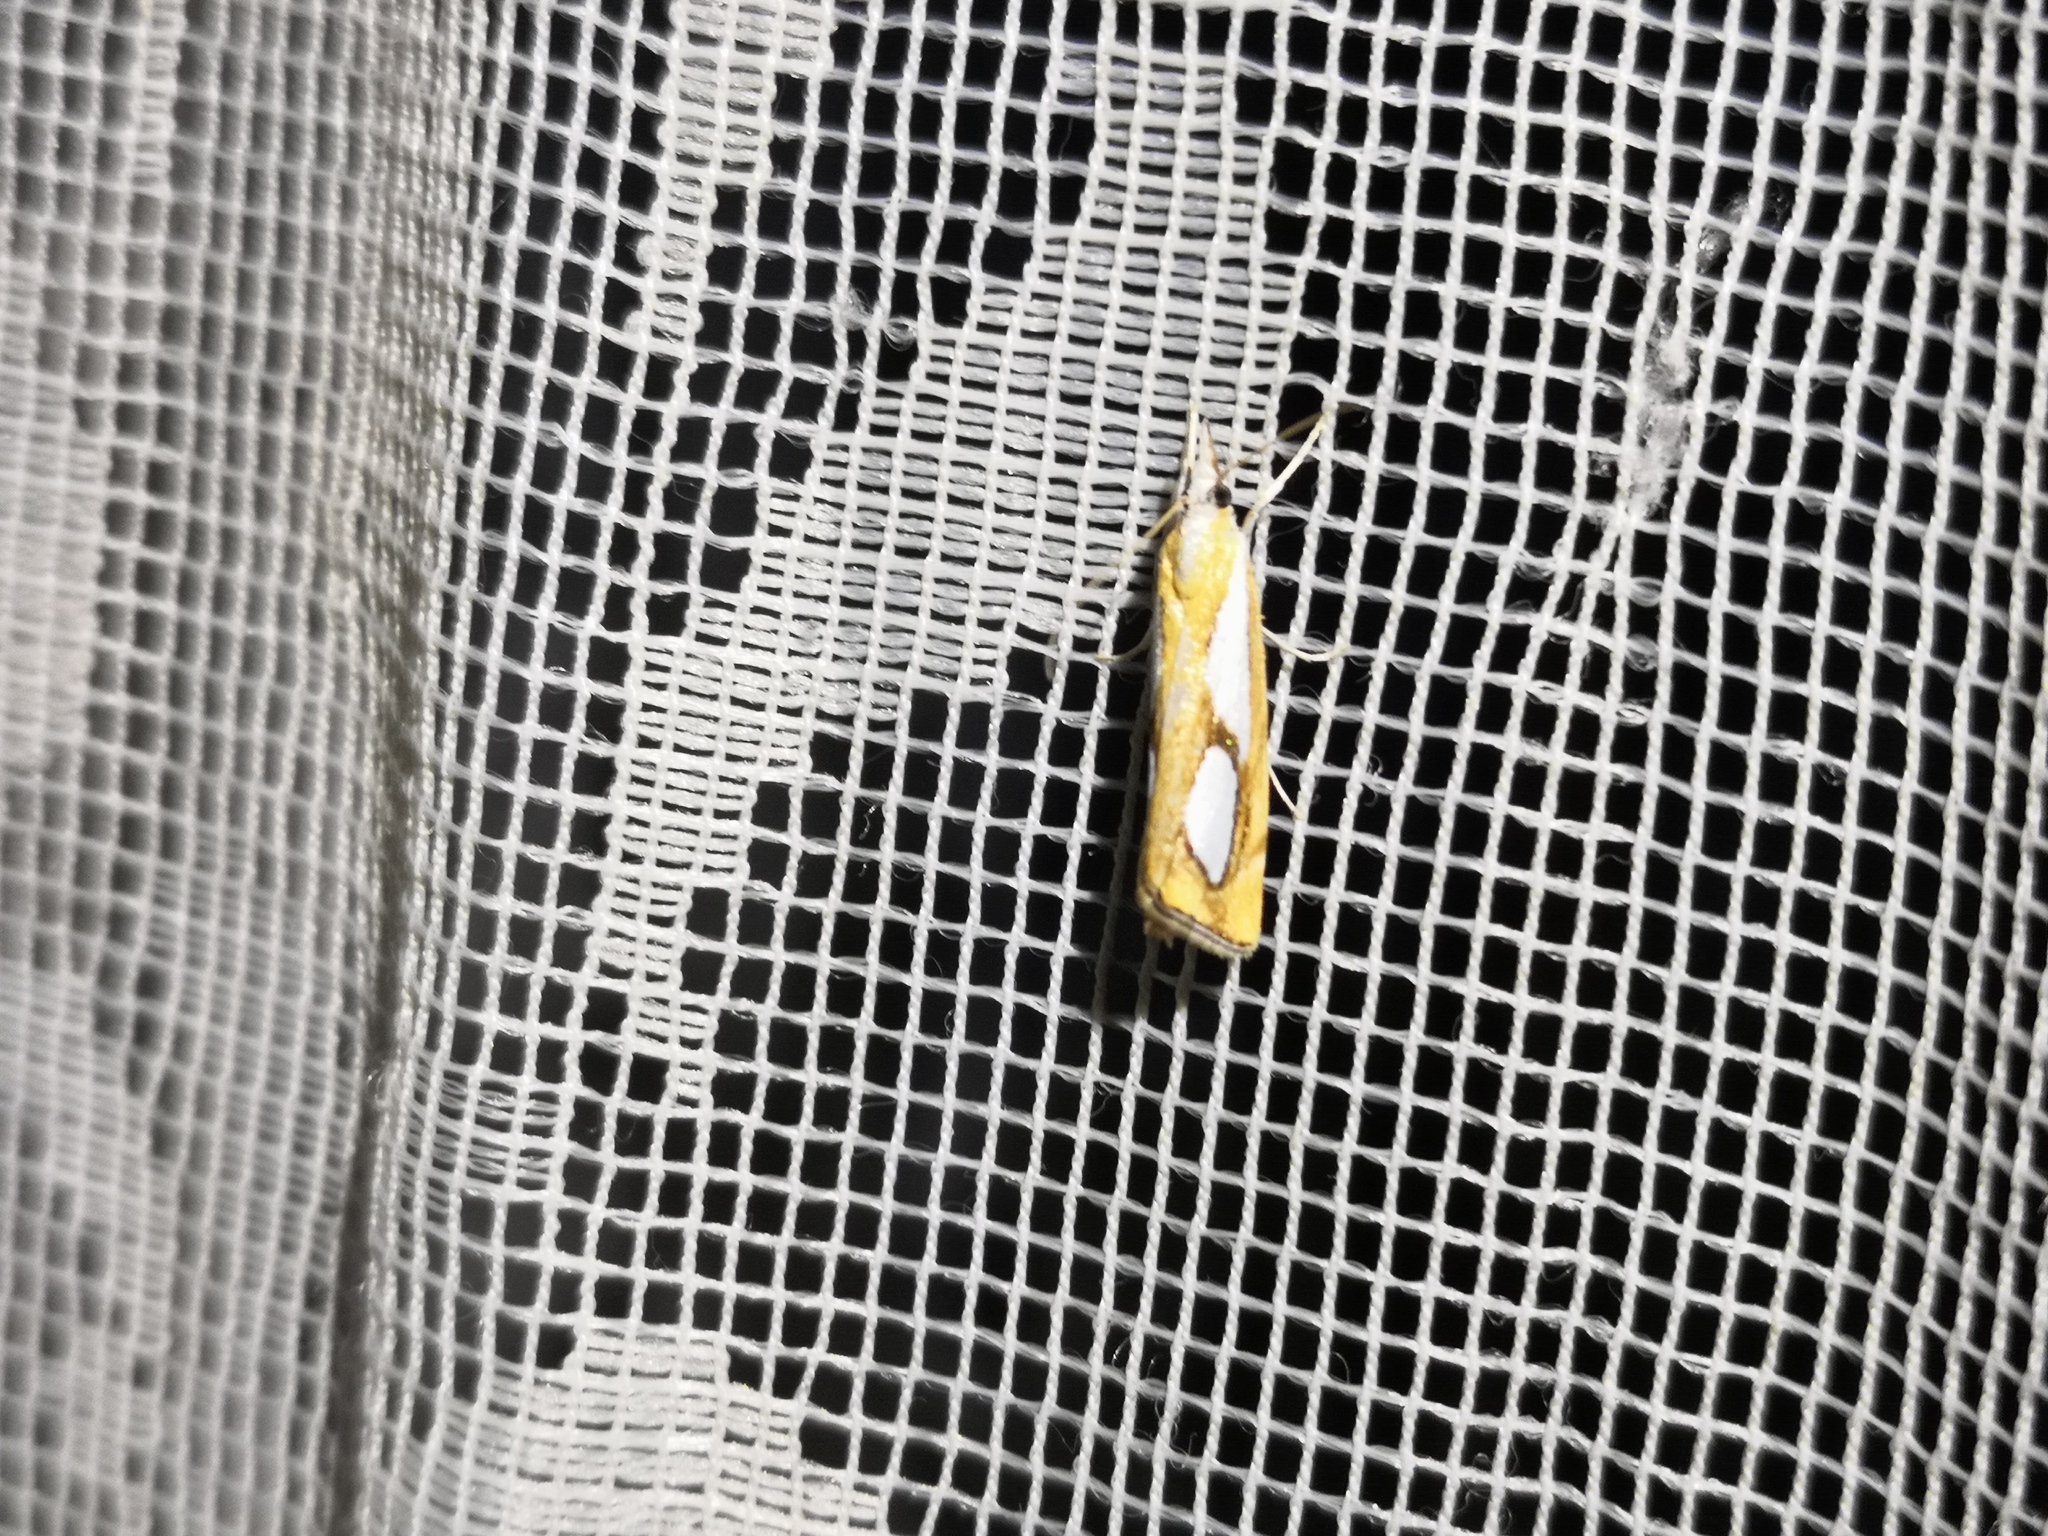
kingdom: Animalia
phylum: Arthropoda
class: Insecta
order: Lepidoptera
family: Crambidae
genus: Catoptria
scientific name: Catoptria pinella
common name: Pearl grass-veneer
